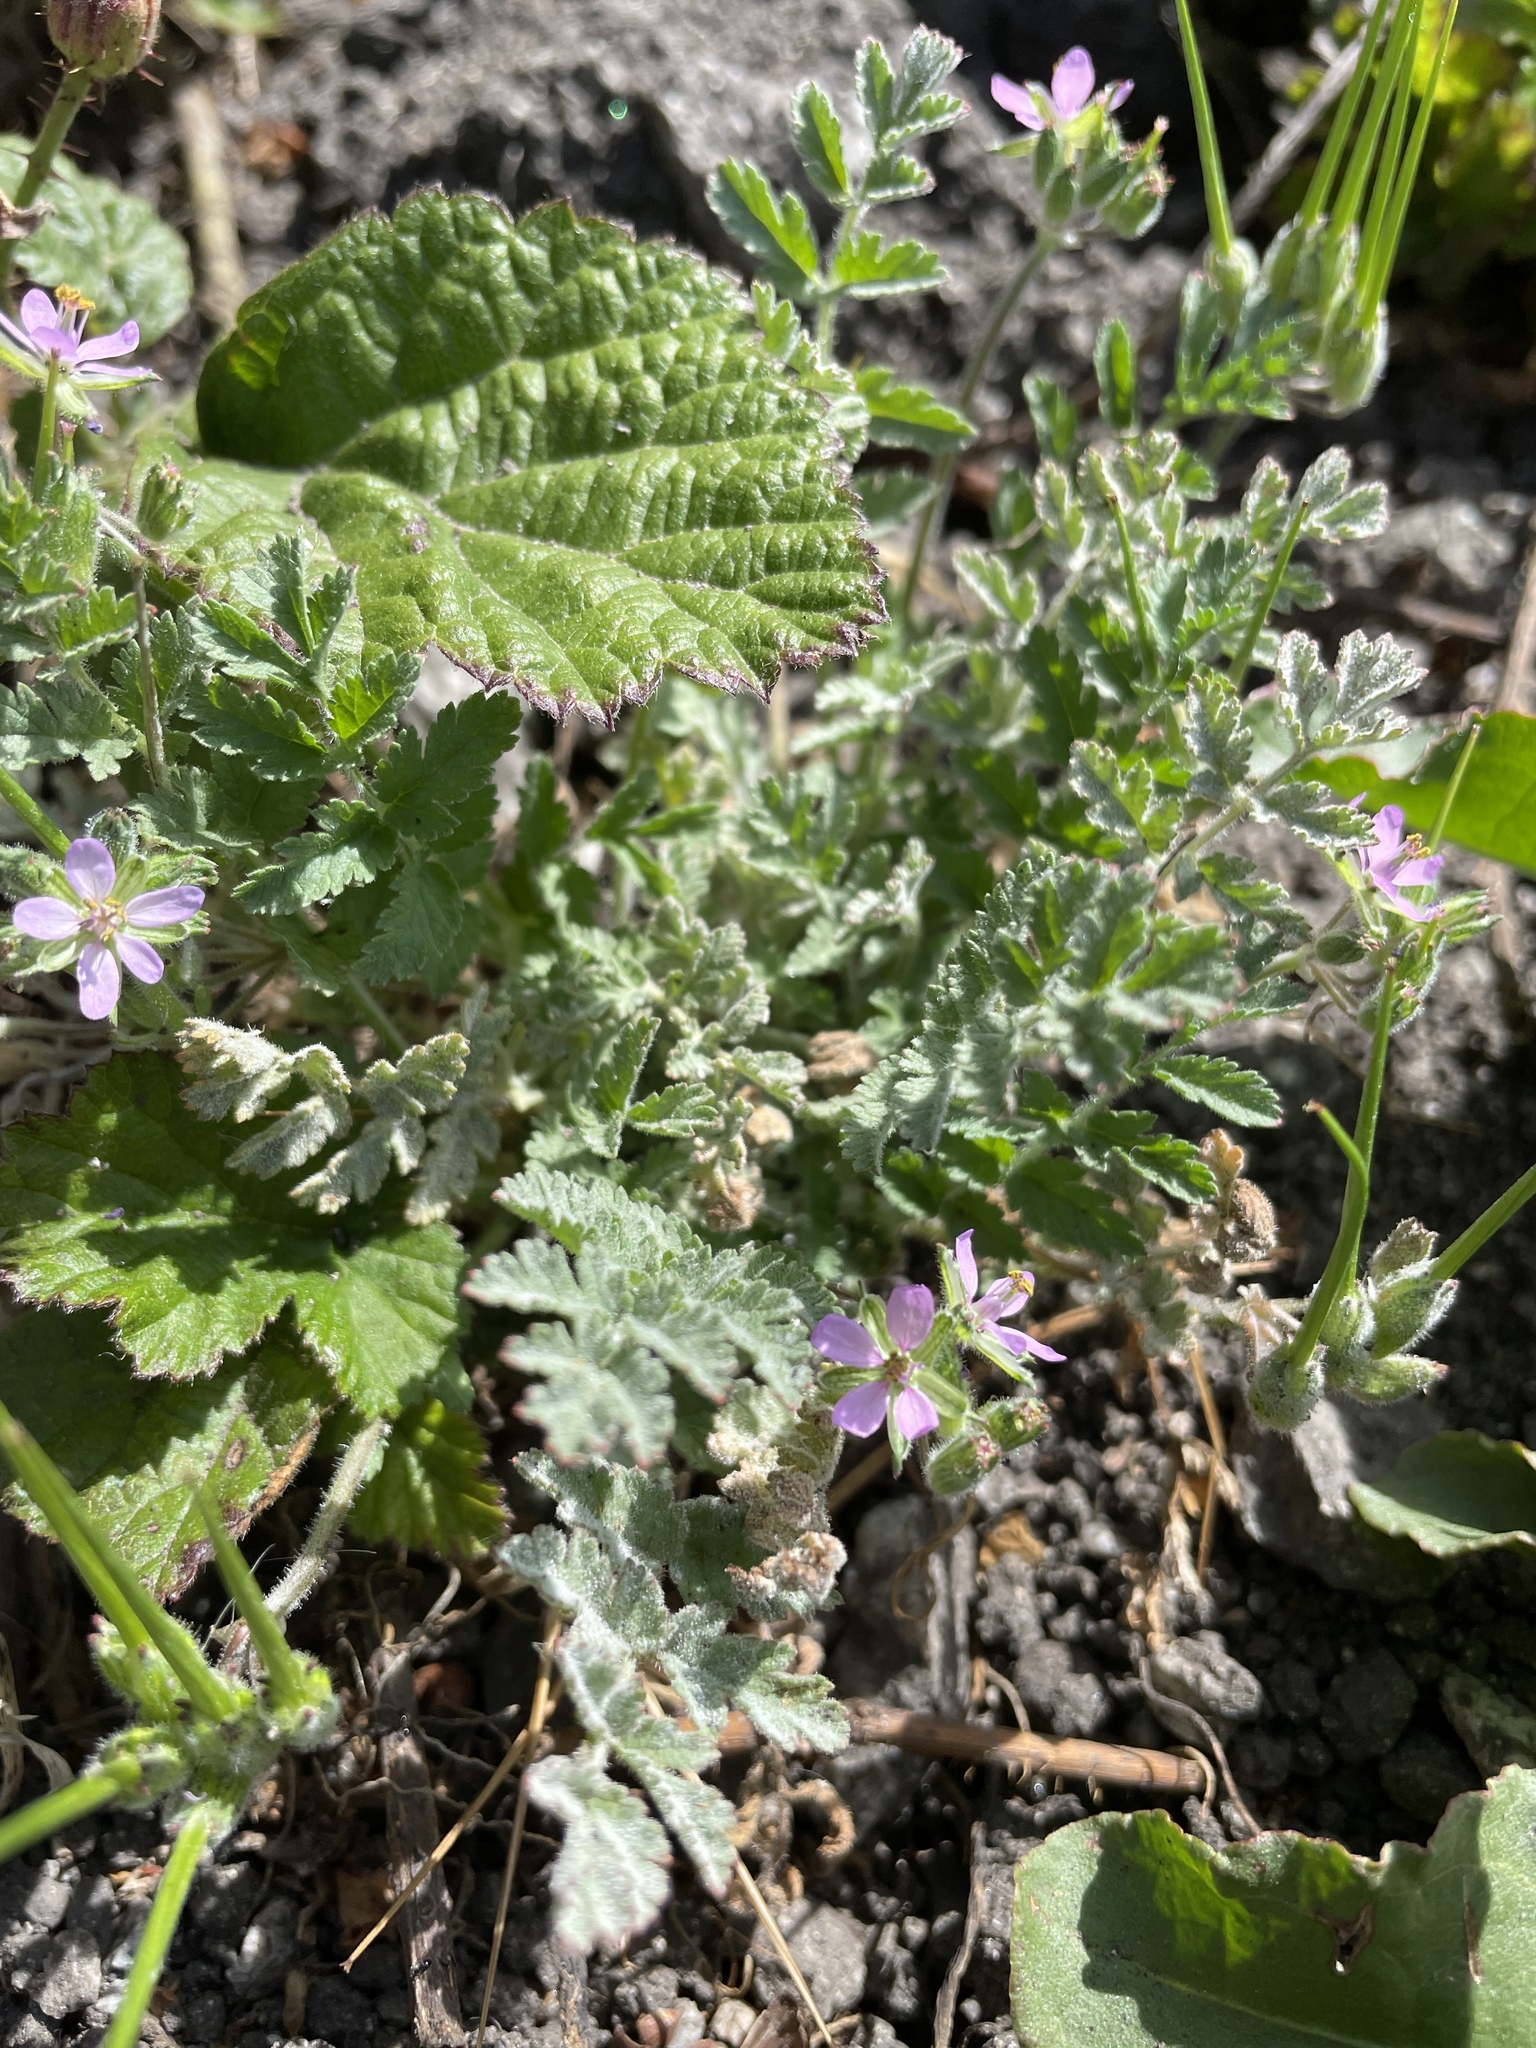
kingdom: Plantae
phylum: Tracheophyta
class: Magnoliopsida
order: Geraniales
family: Geraniaceae
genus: Erodium
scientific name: Erodium moschatum
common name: Musk stork's-bill
